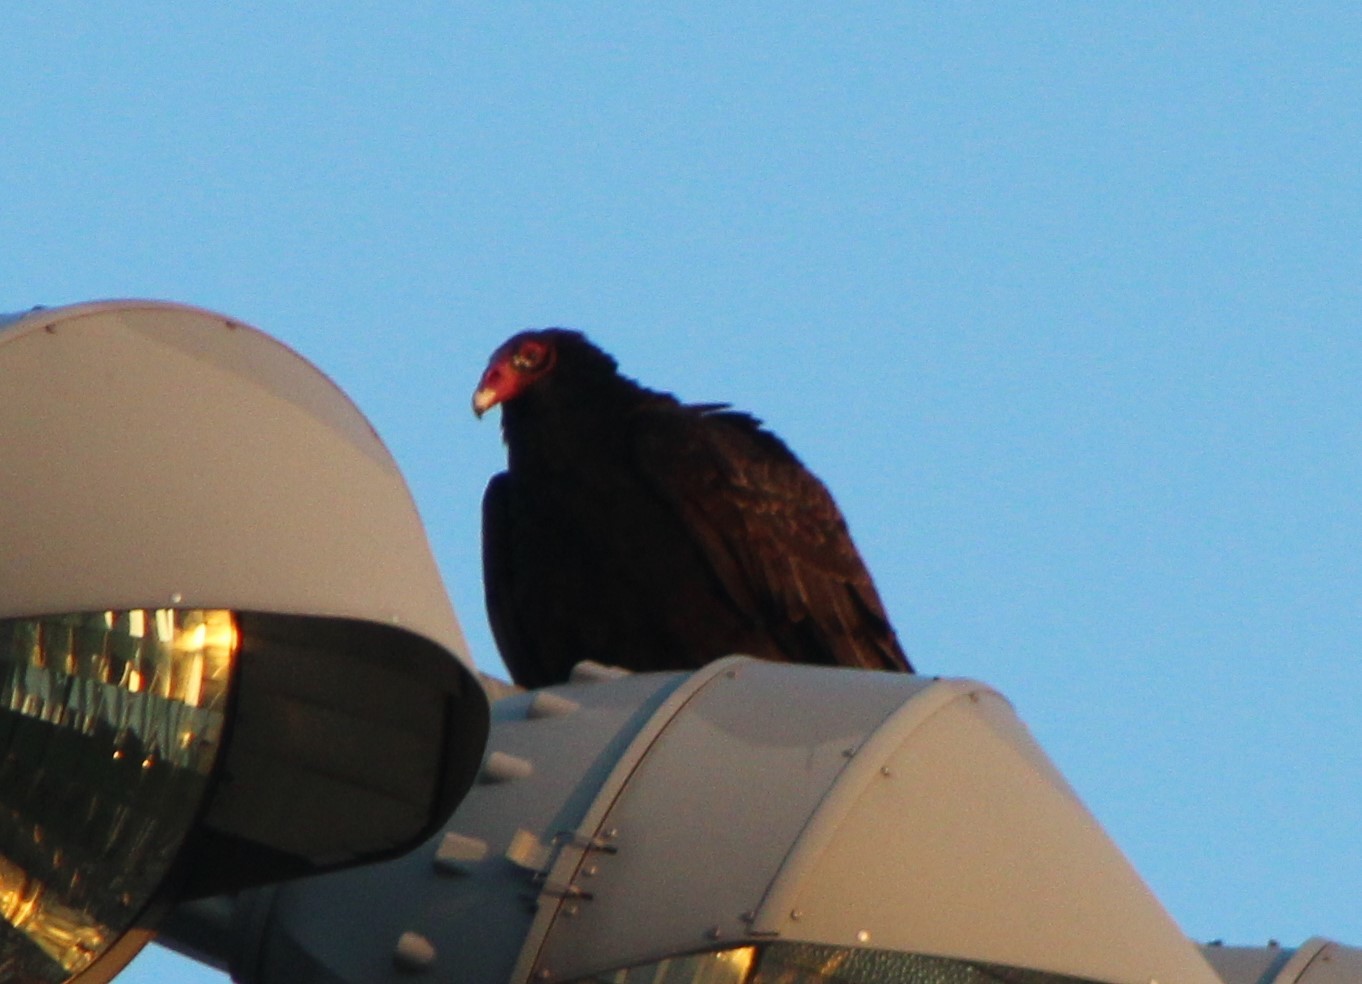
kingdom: Animalia
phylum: Chordata
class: Aves
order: Accipitriformes
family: Cathartidae
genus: Cathartes
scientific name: Cathartes aura
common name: Turkey vulture
